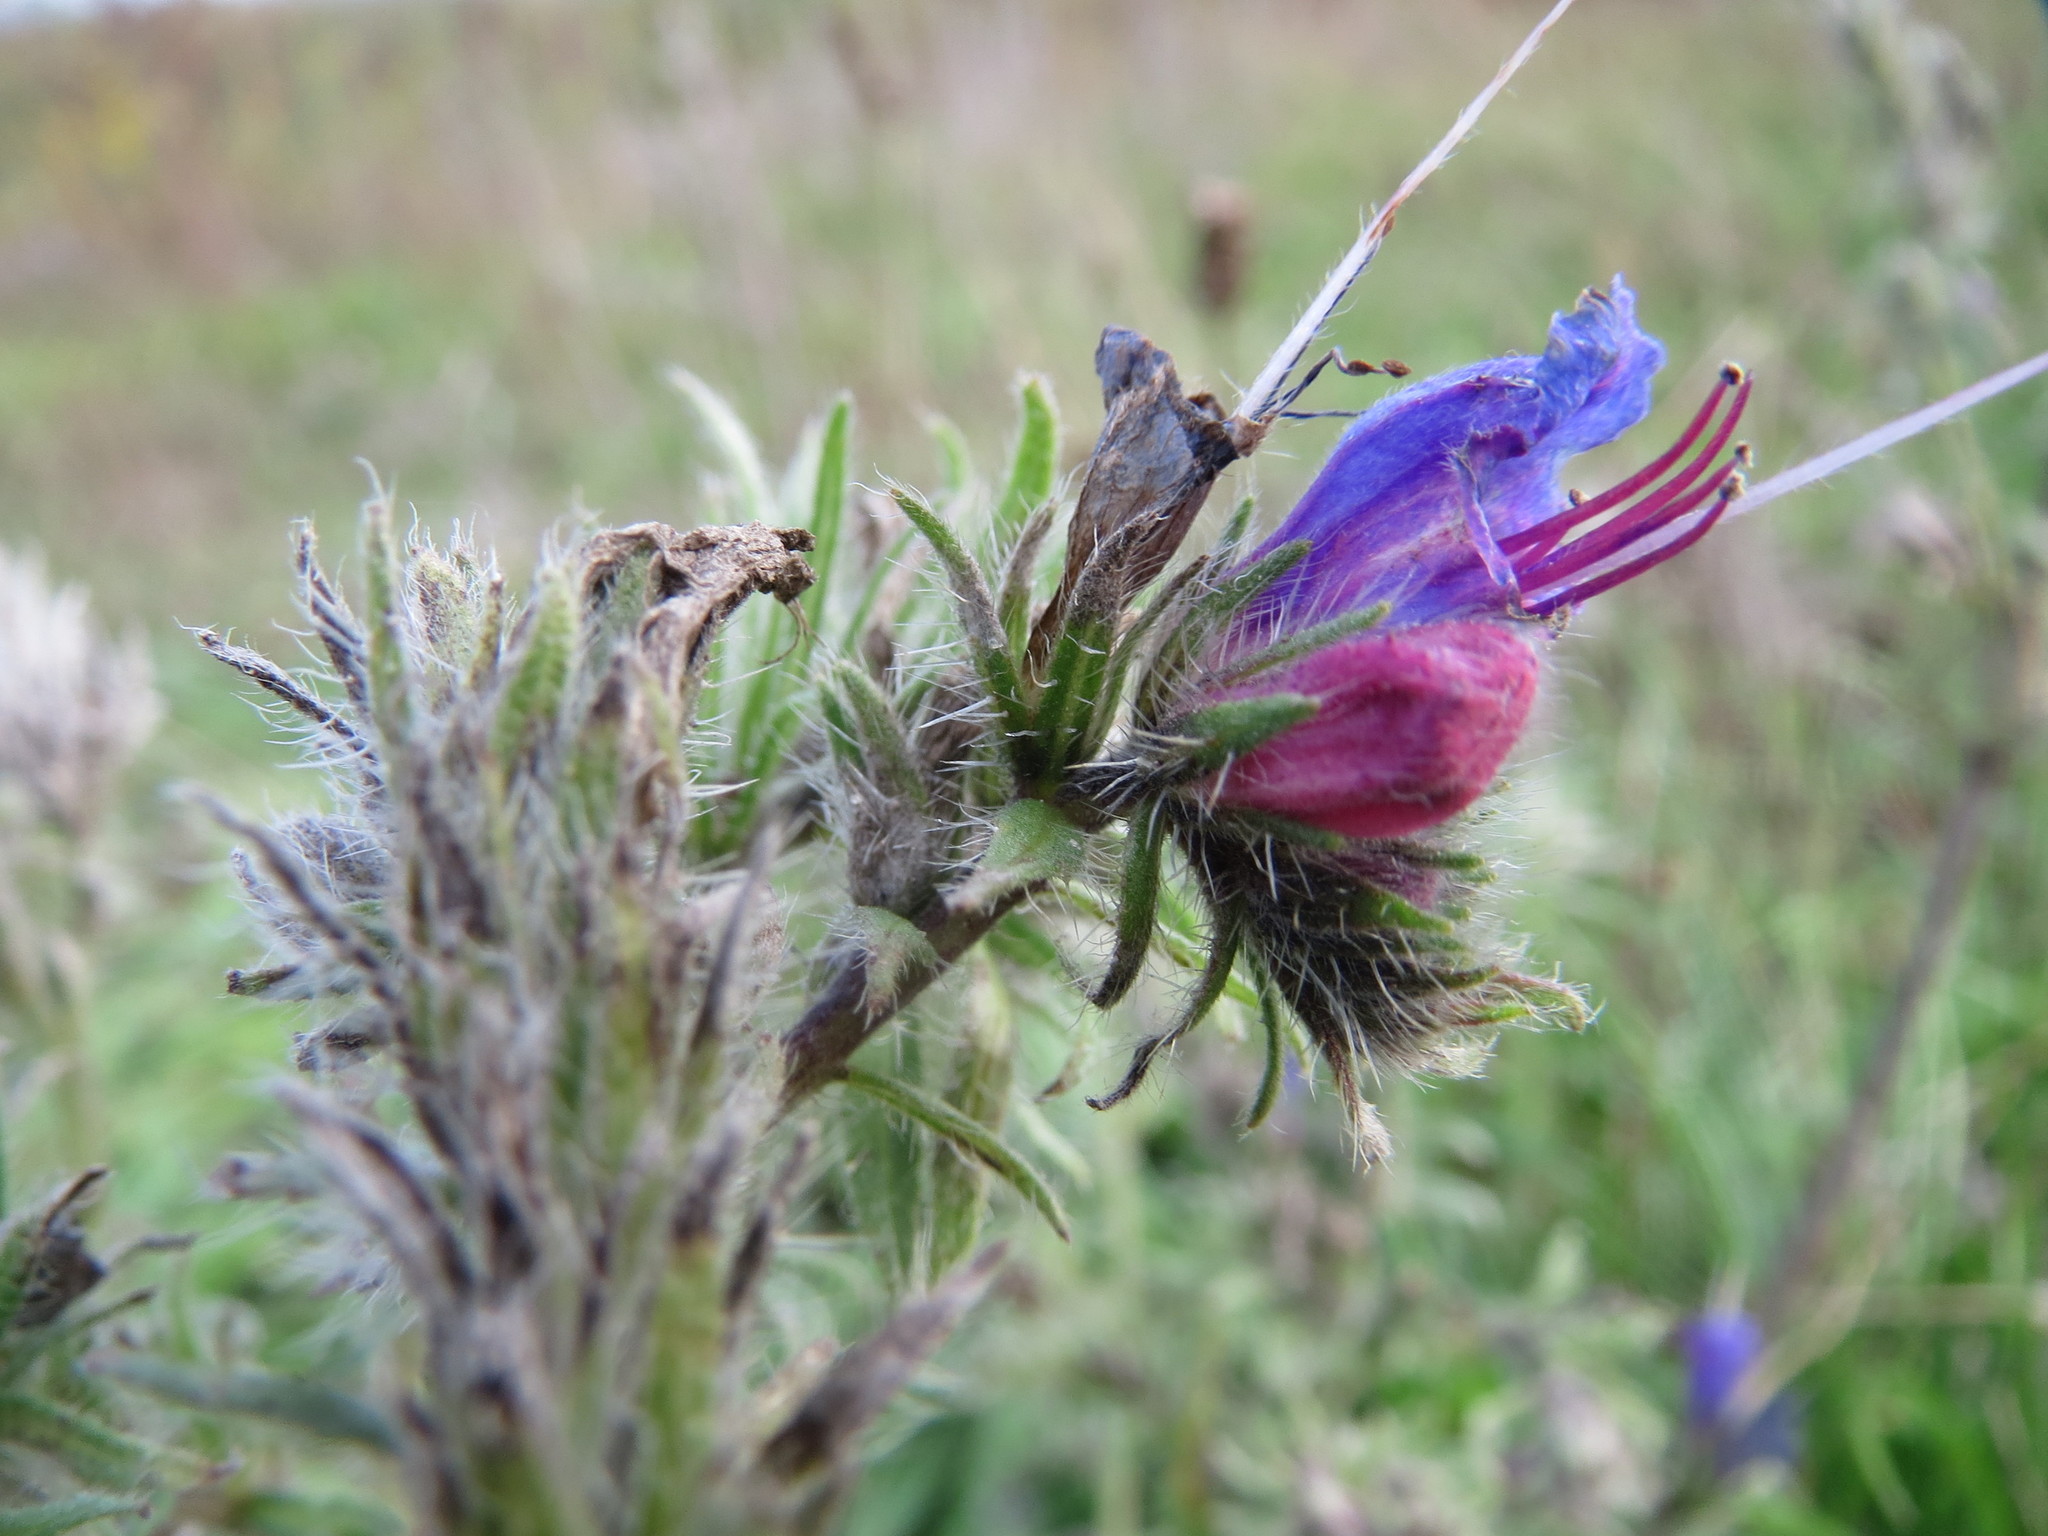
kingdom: Plantae
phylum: Tracheophyta
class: Magnoliopsida
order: Boraginales
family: Boraginaceae
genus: Echium
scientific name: Echium vulgare
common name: Common viper's bugloss
